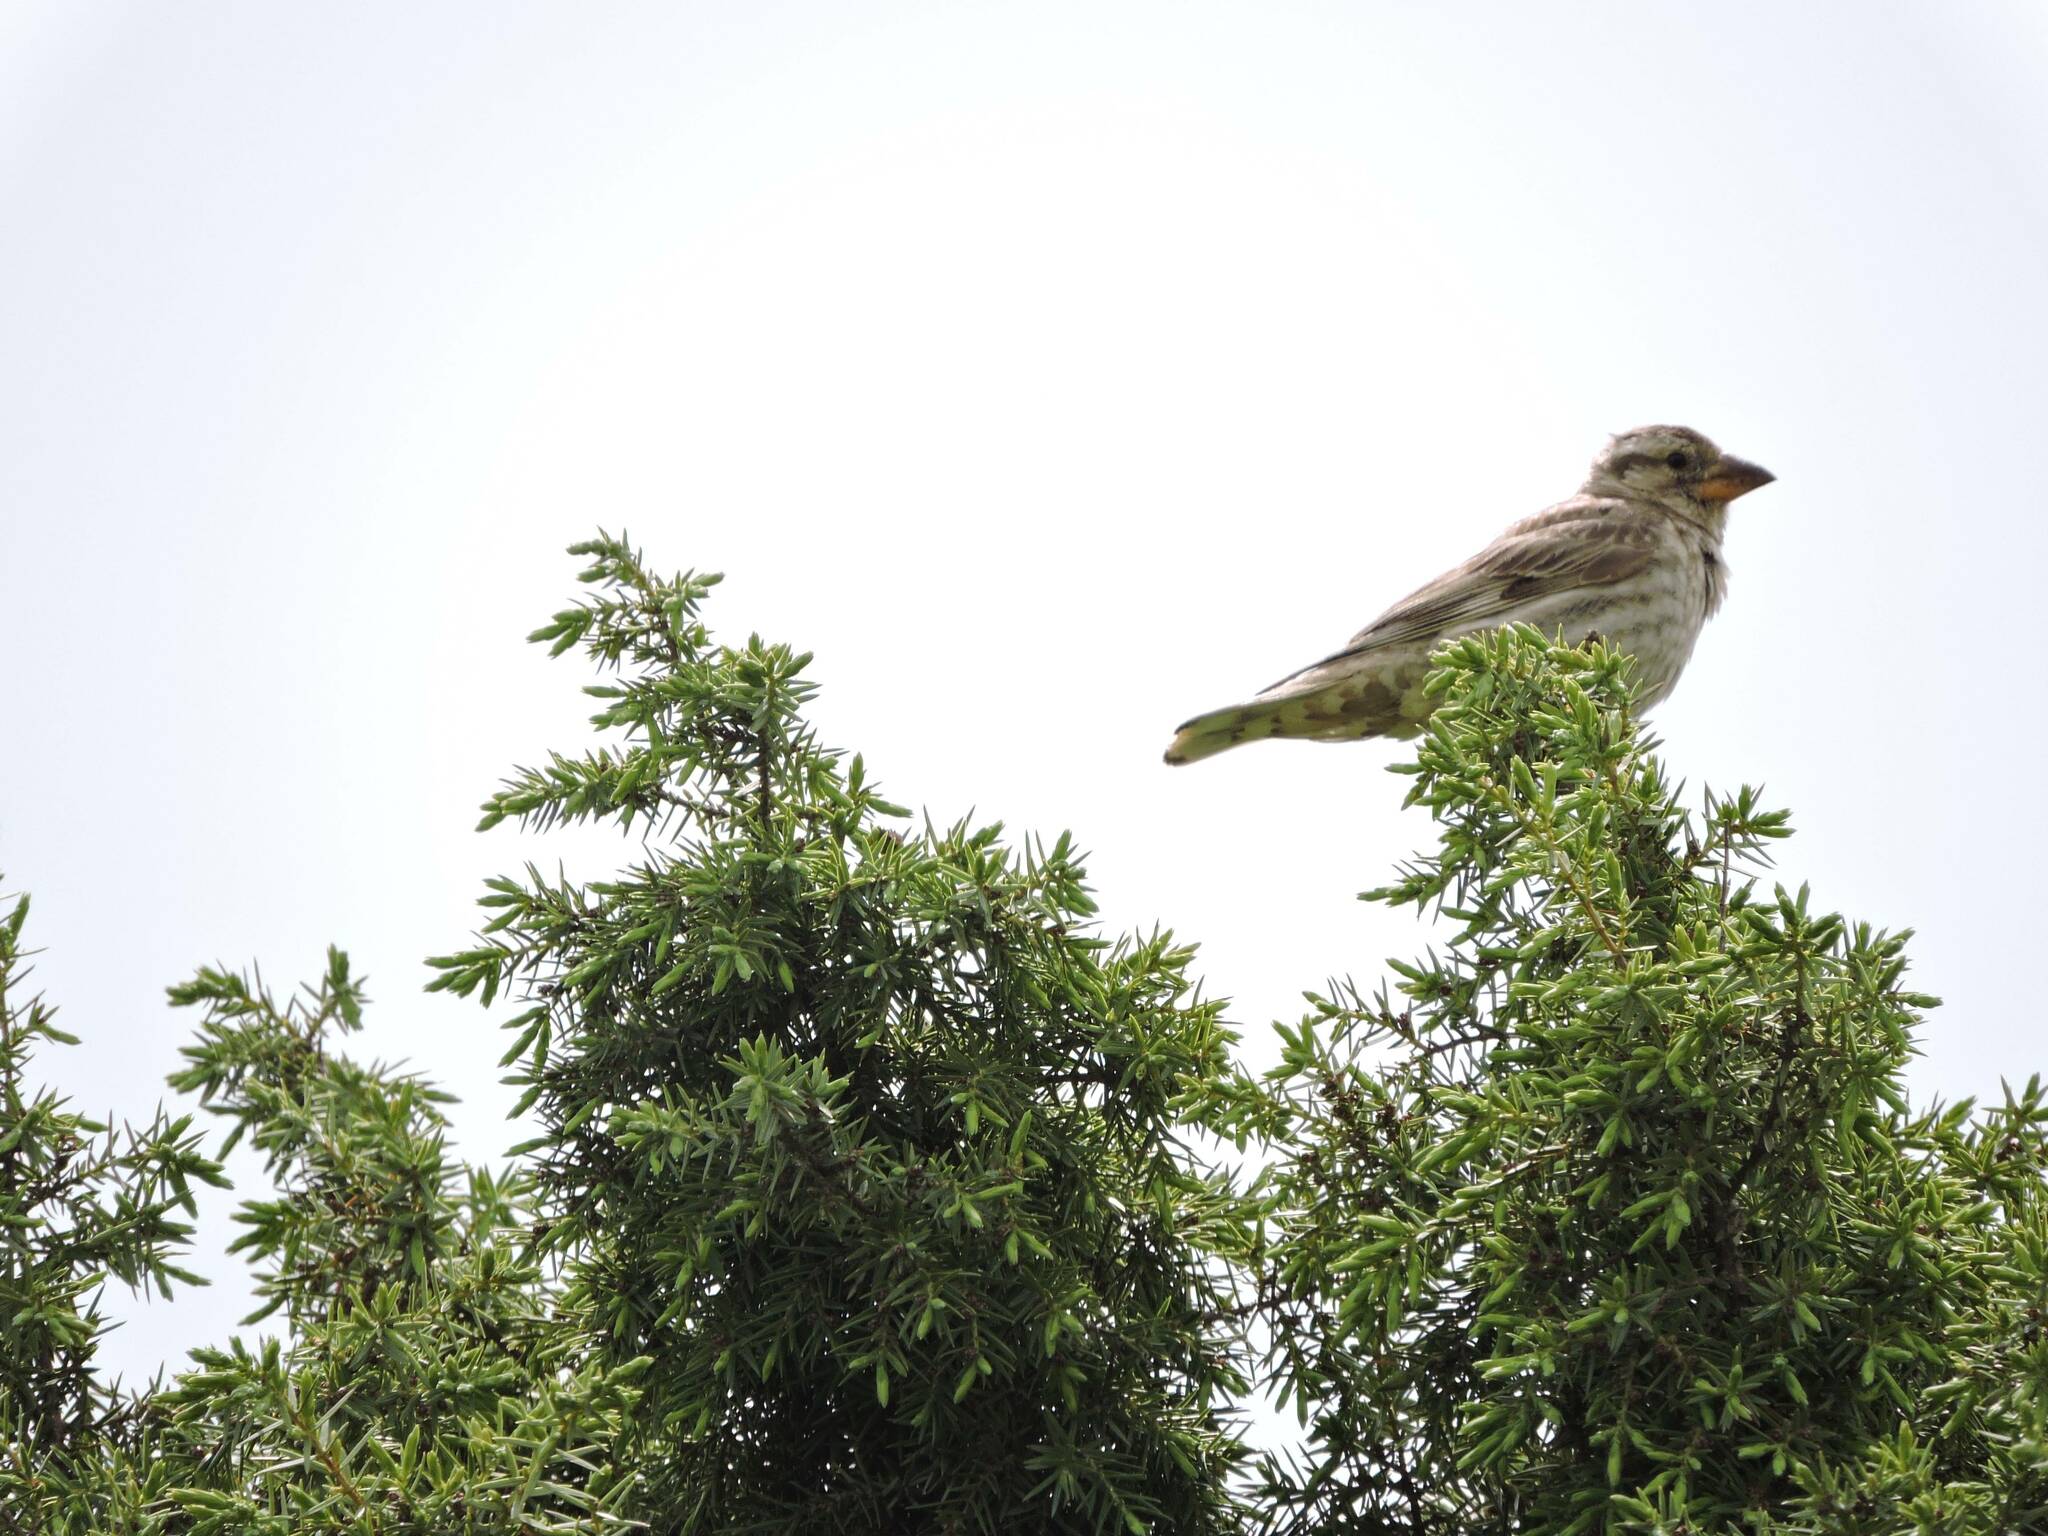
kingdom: Animalia
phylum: Chordata
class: Aves
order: Passeriformes
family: Passeridae
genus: Petronia
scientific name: Petronia petronia
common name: Rock sparrow
